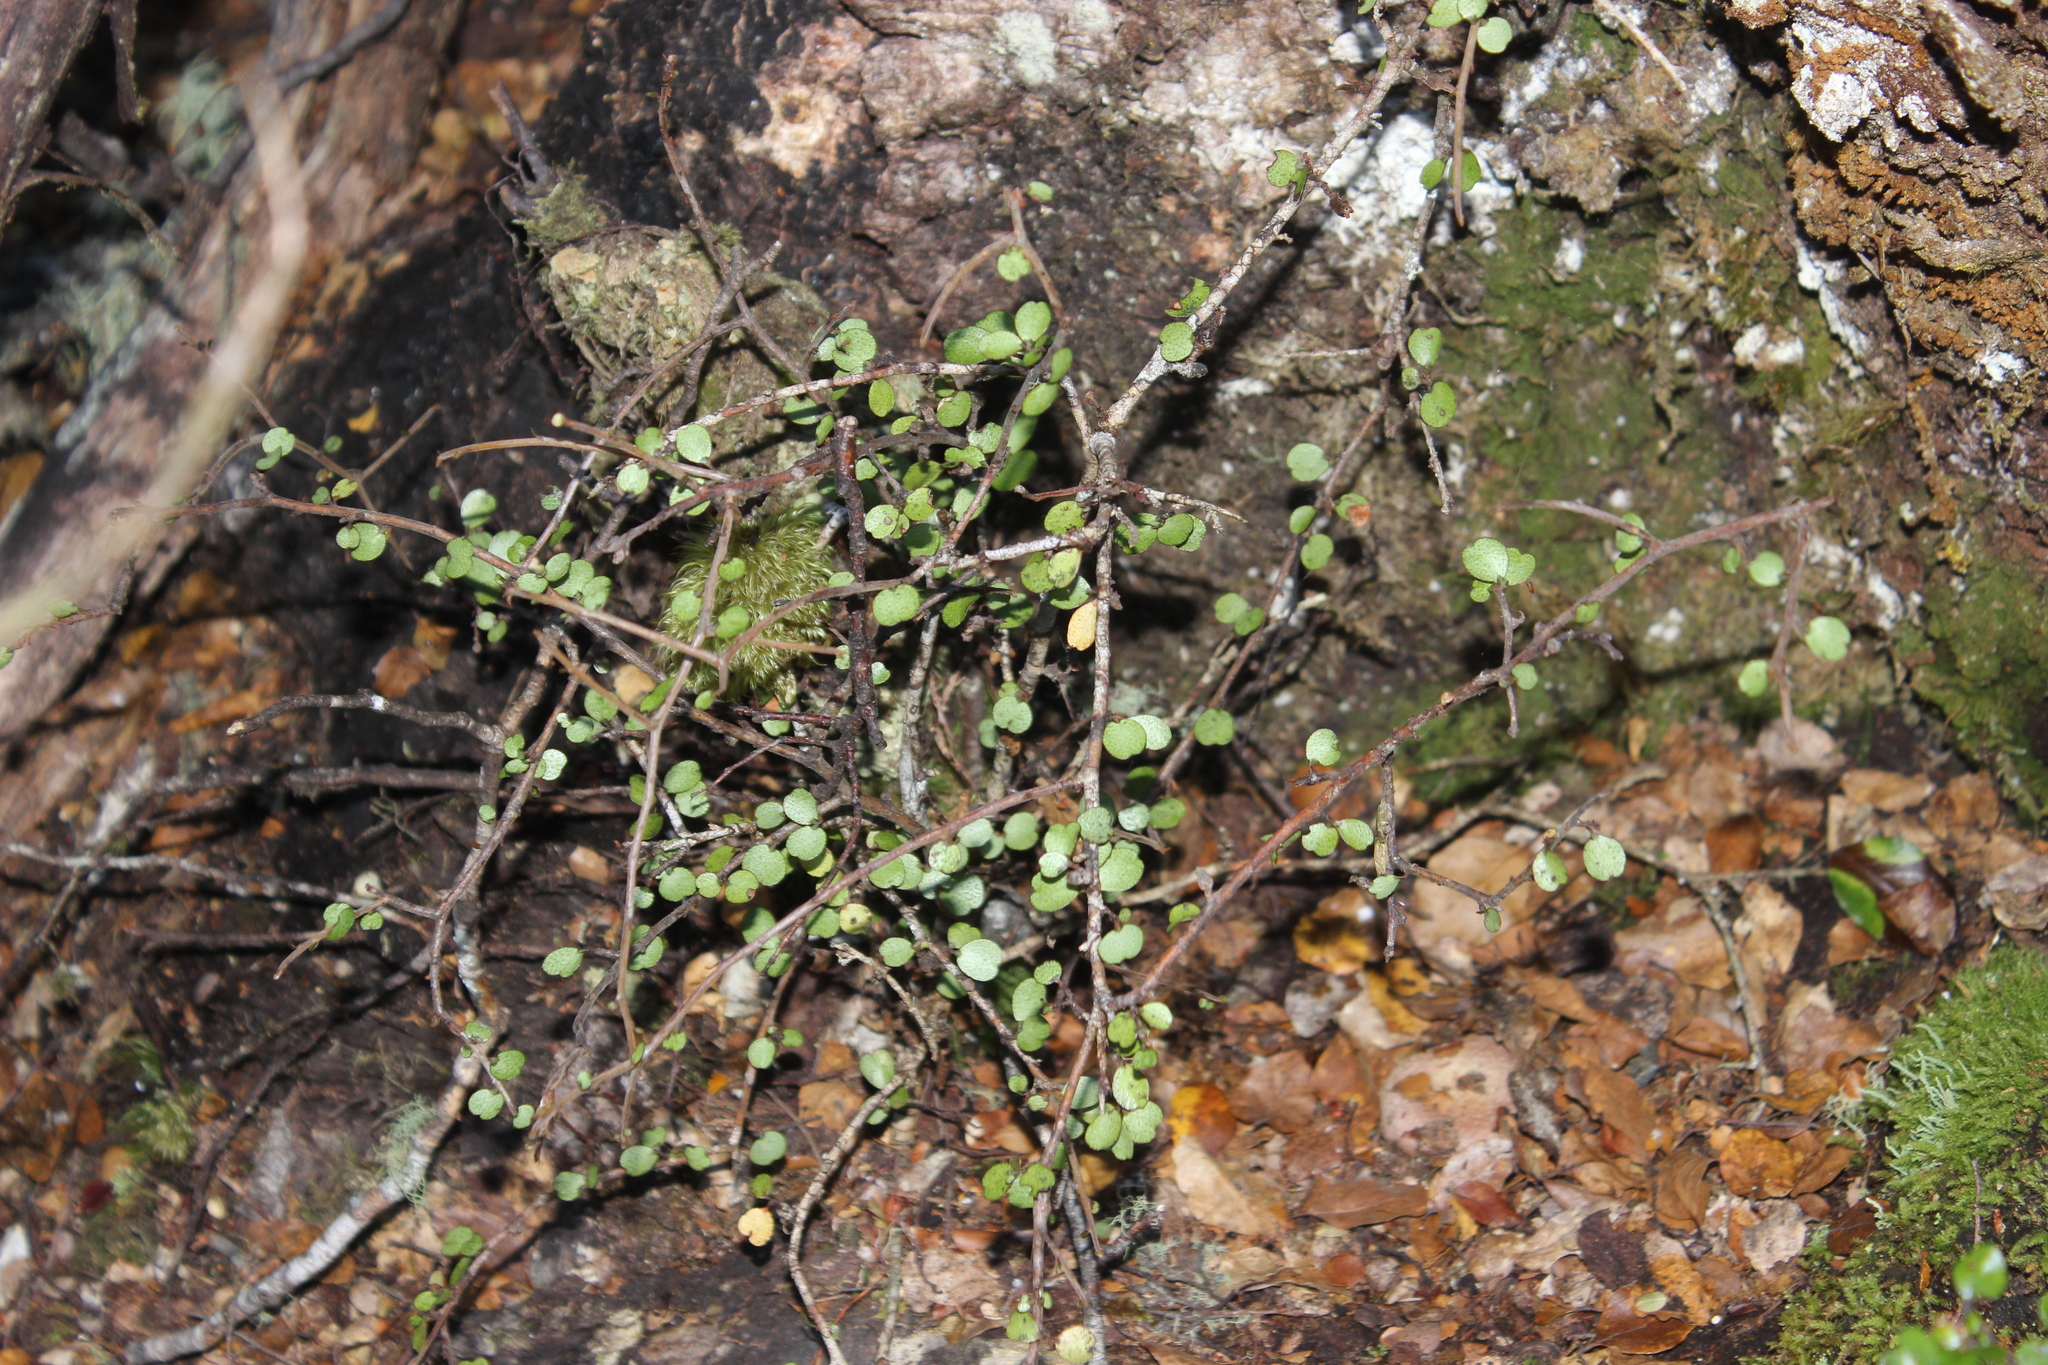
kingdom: Plantae
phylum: Tracheophyta
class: Magnoliopsida
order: Ericales
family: Primulaceae
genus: Myrsine
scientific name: Myrsine divaricata
